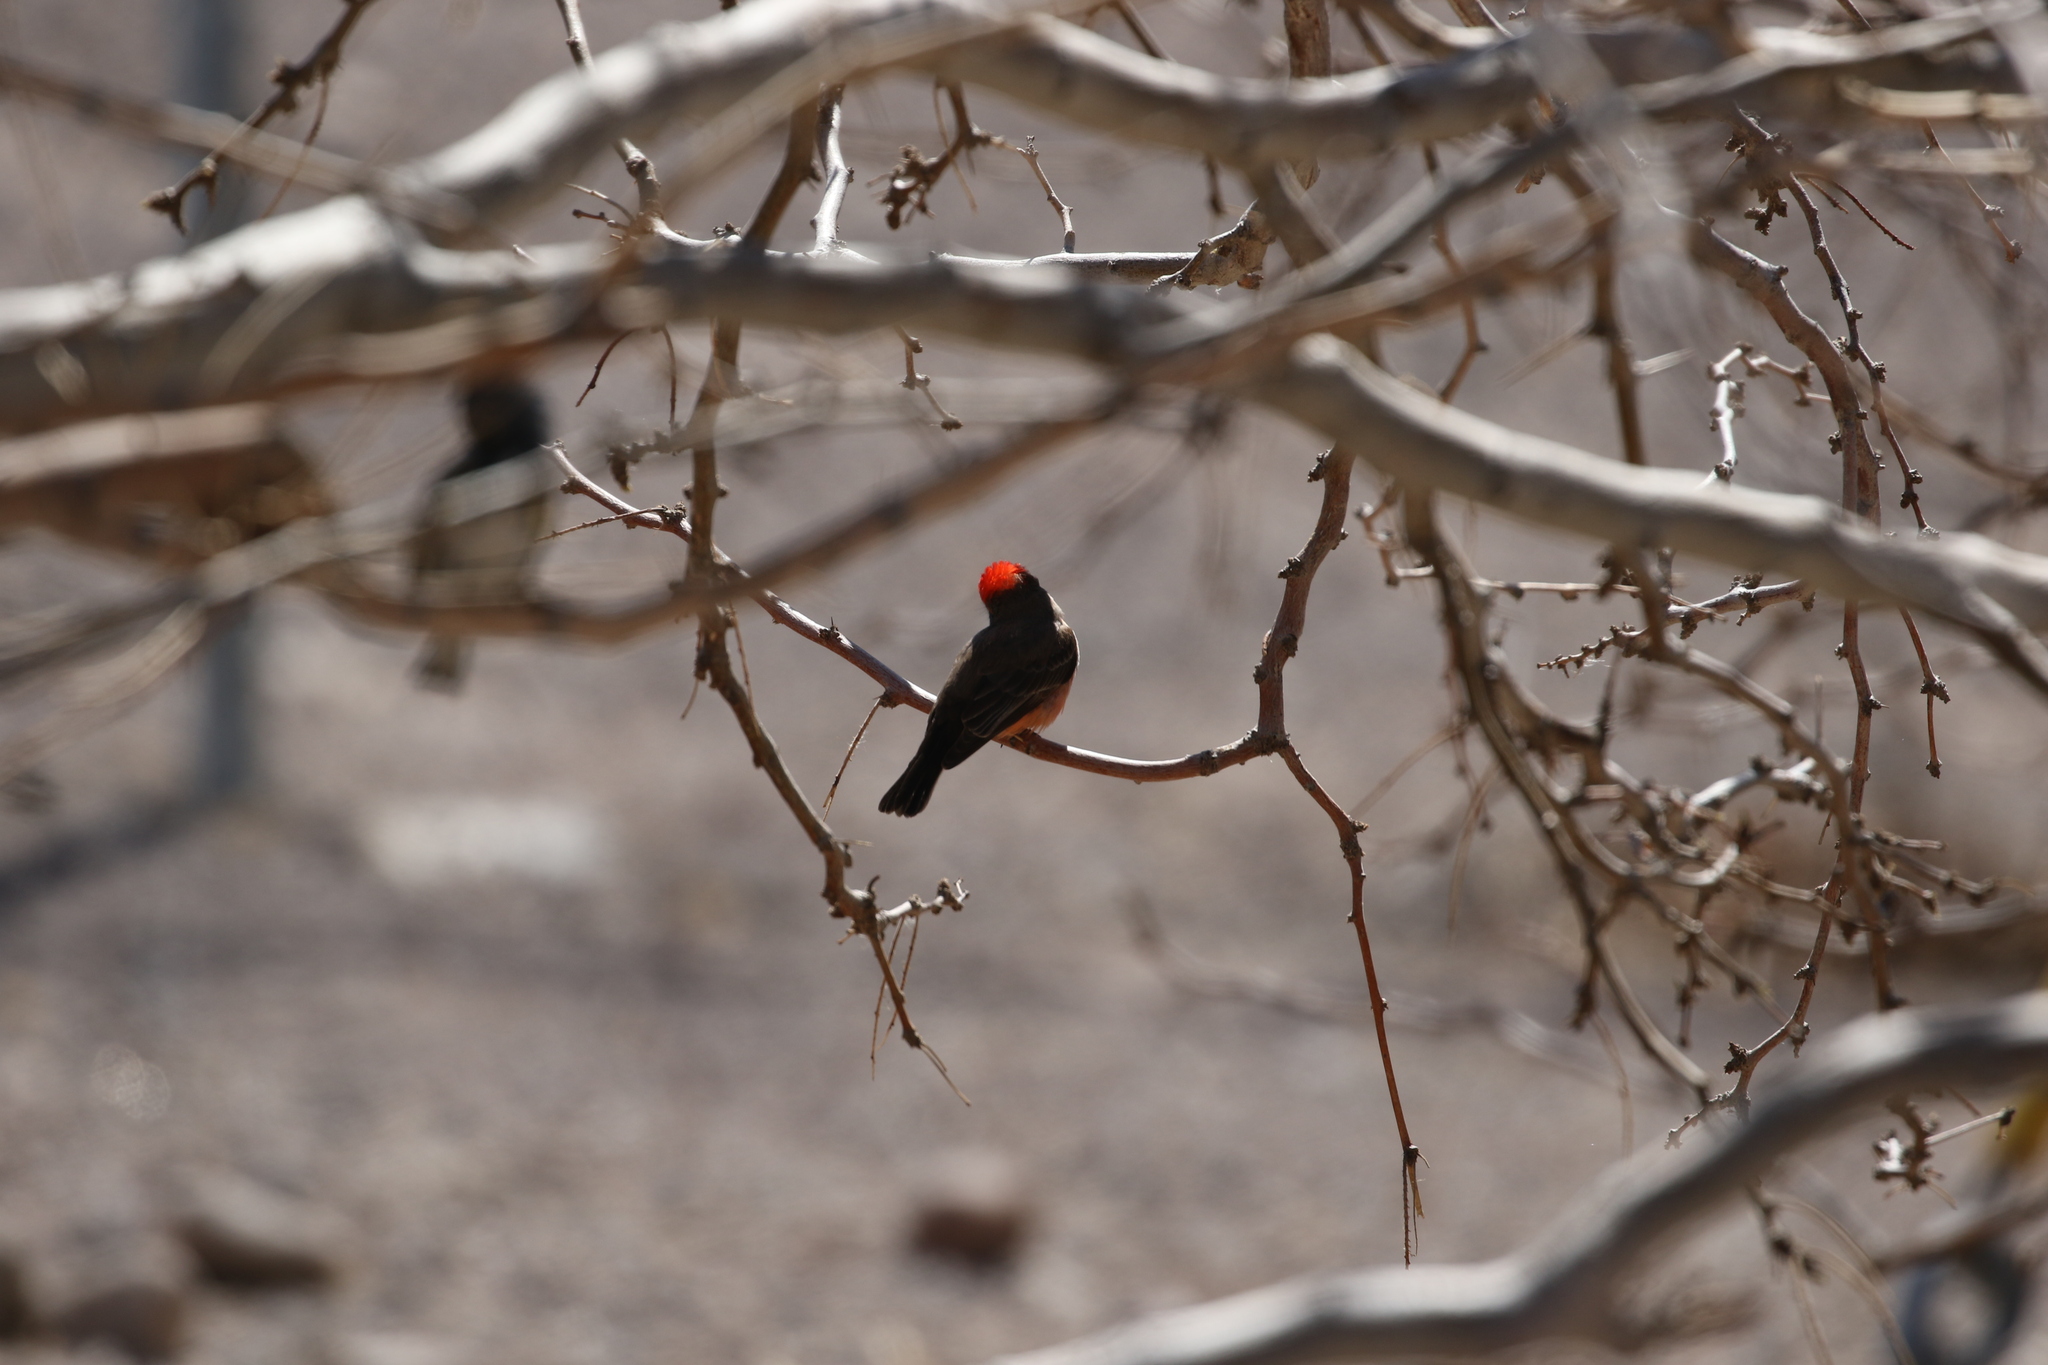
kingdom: Animalia
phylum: Chordata
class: Aves
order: Passeriformes
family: Tyrannidae
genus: Pyrocephalus
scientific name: Pyrocephalus rubinus
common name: Vermilion flycatcher
